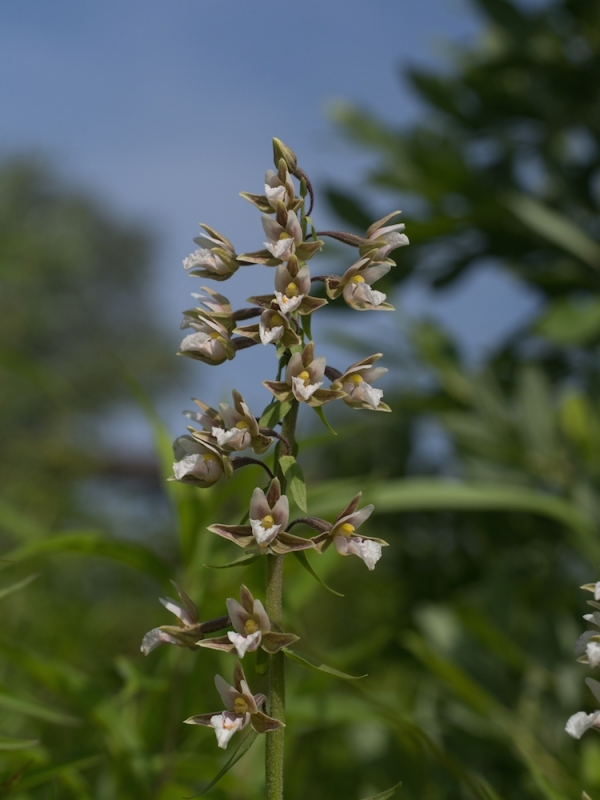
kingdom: Plantae
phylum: Tracheophyta
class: Liliopsida
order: Asparagales
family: Orchidaceae
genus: Epipactis
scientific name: Epipactis palustris
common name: Marsh helleborine
